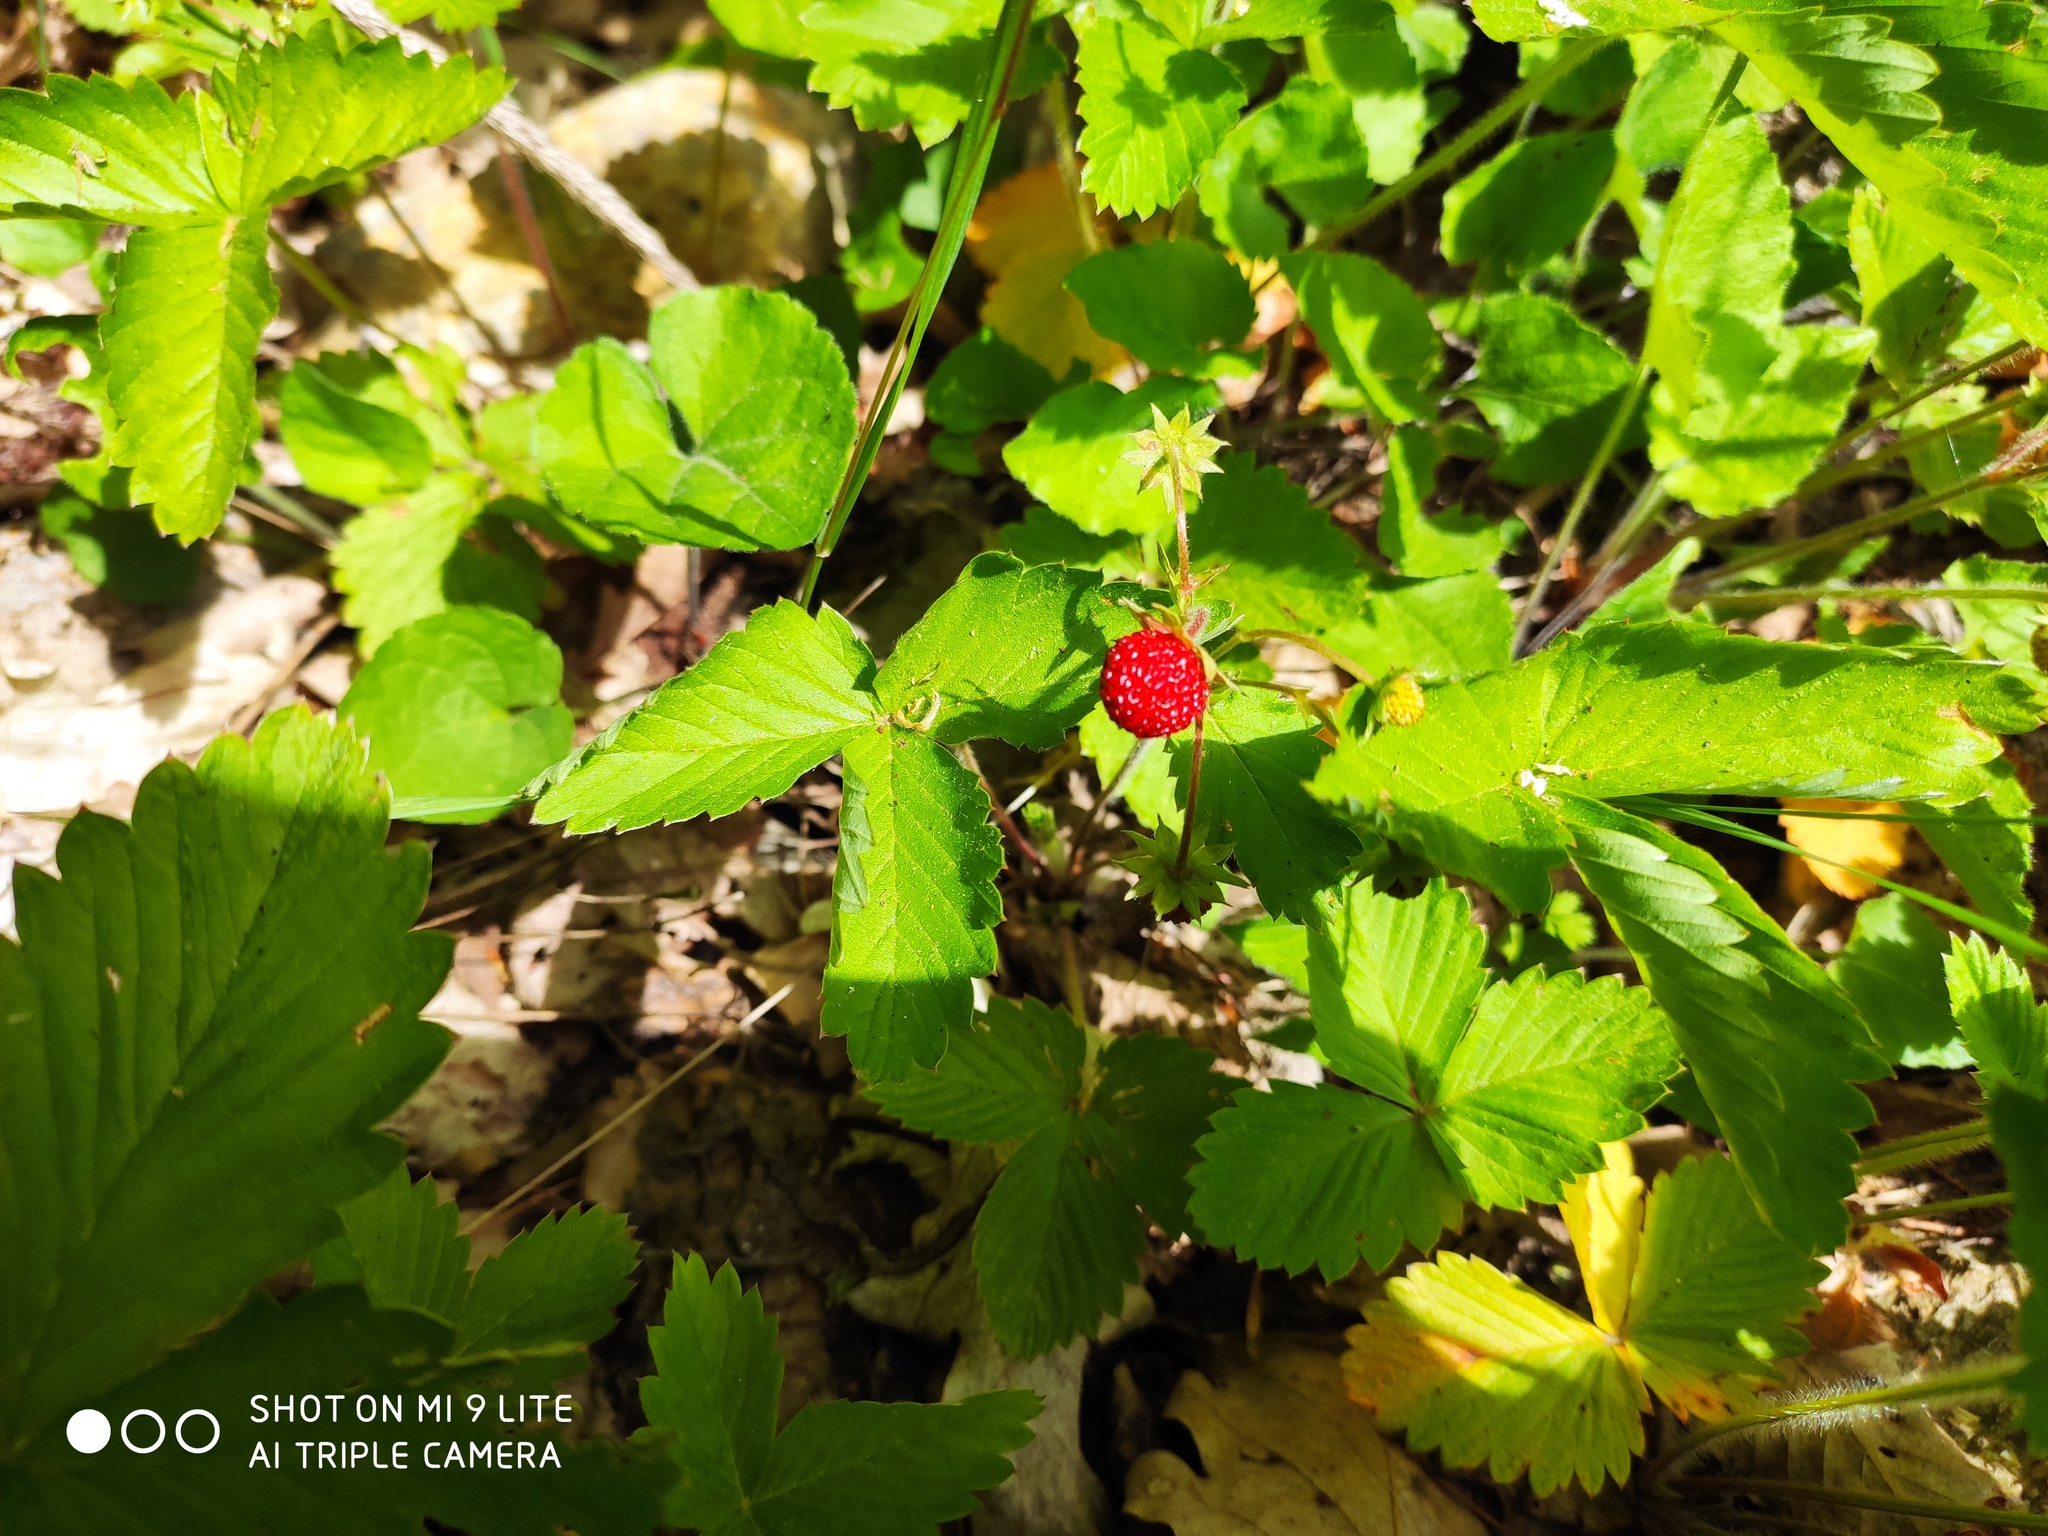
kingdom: Plantae
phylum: Tracheophyta
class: Magnoliopsida
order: Rosales
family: Rosaceae
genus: Potentilla
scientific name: Potentilla indica
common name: Yellow-flowered strawberry
